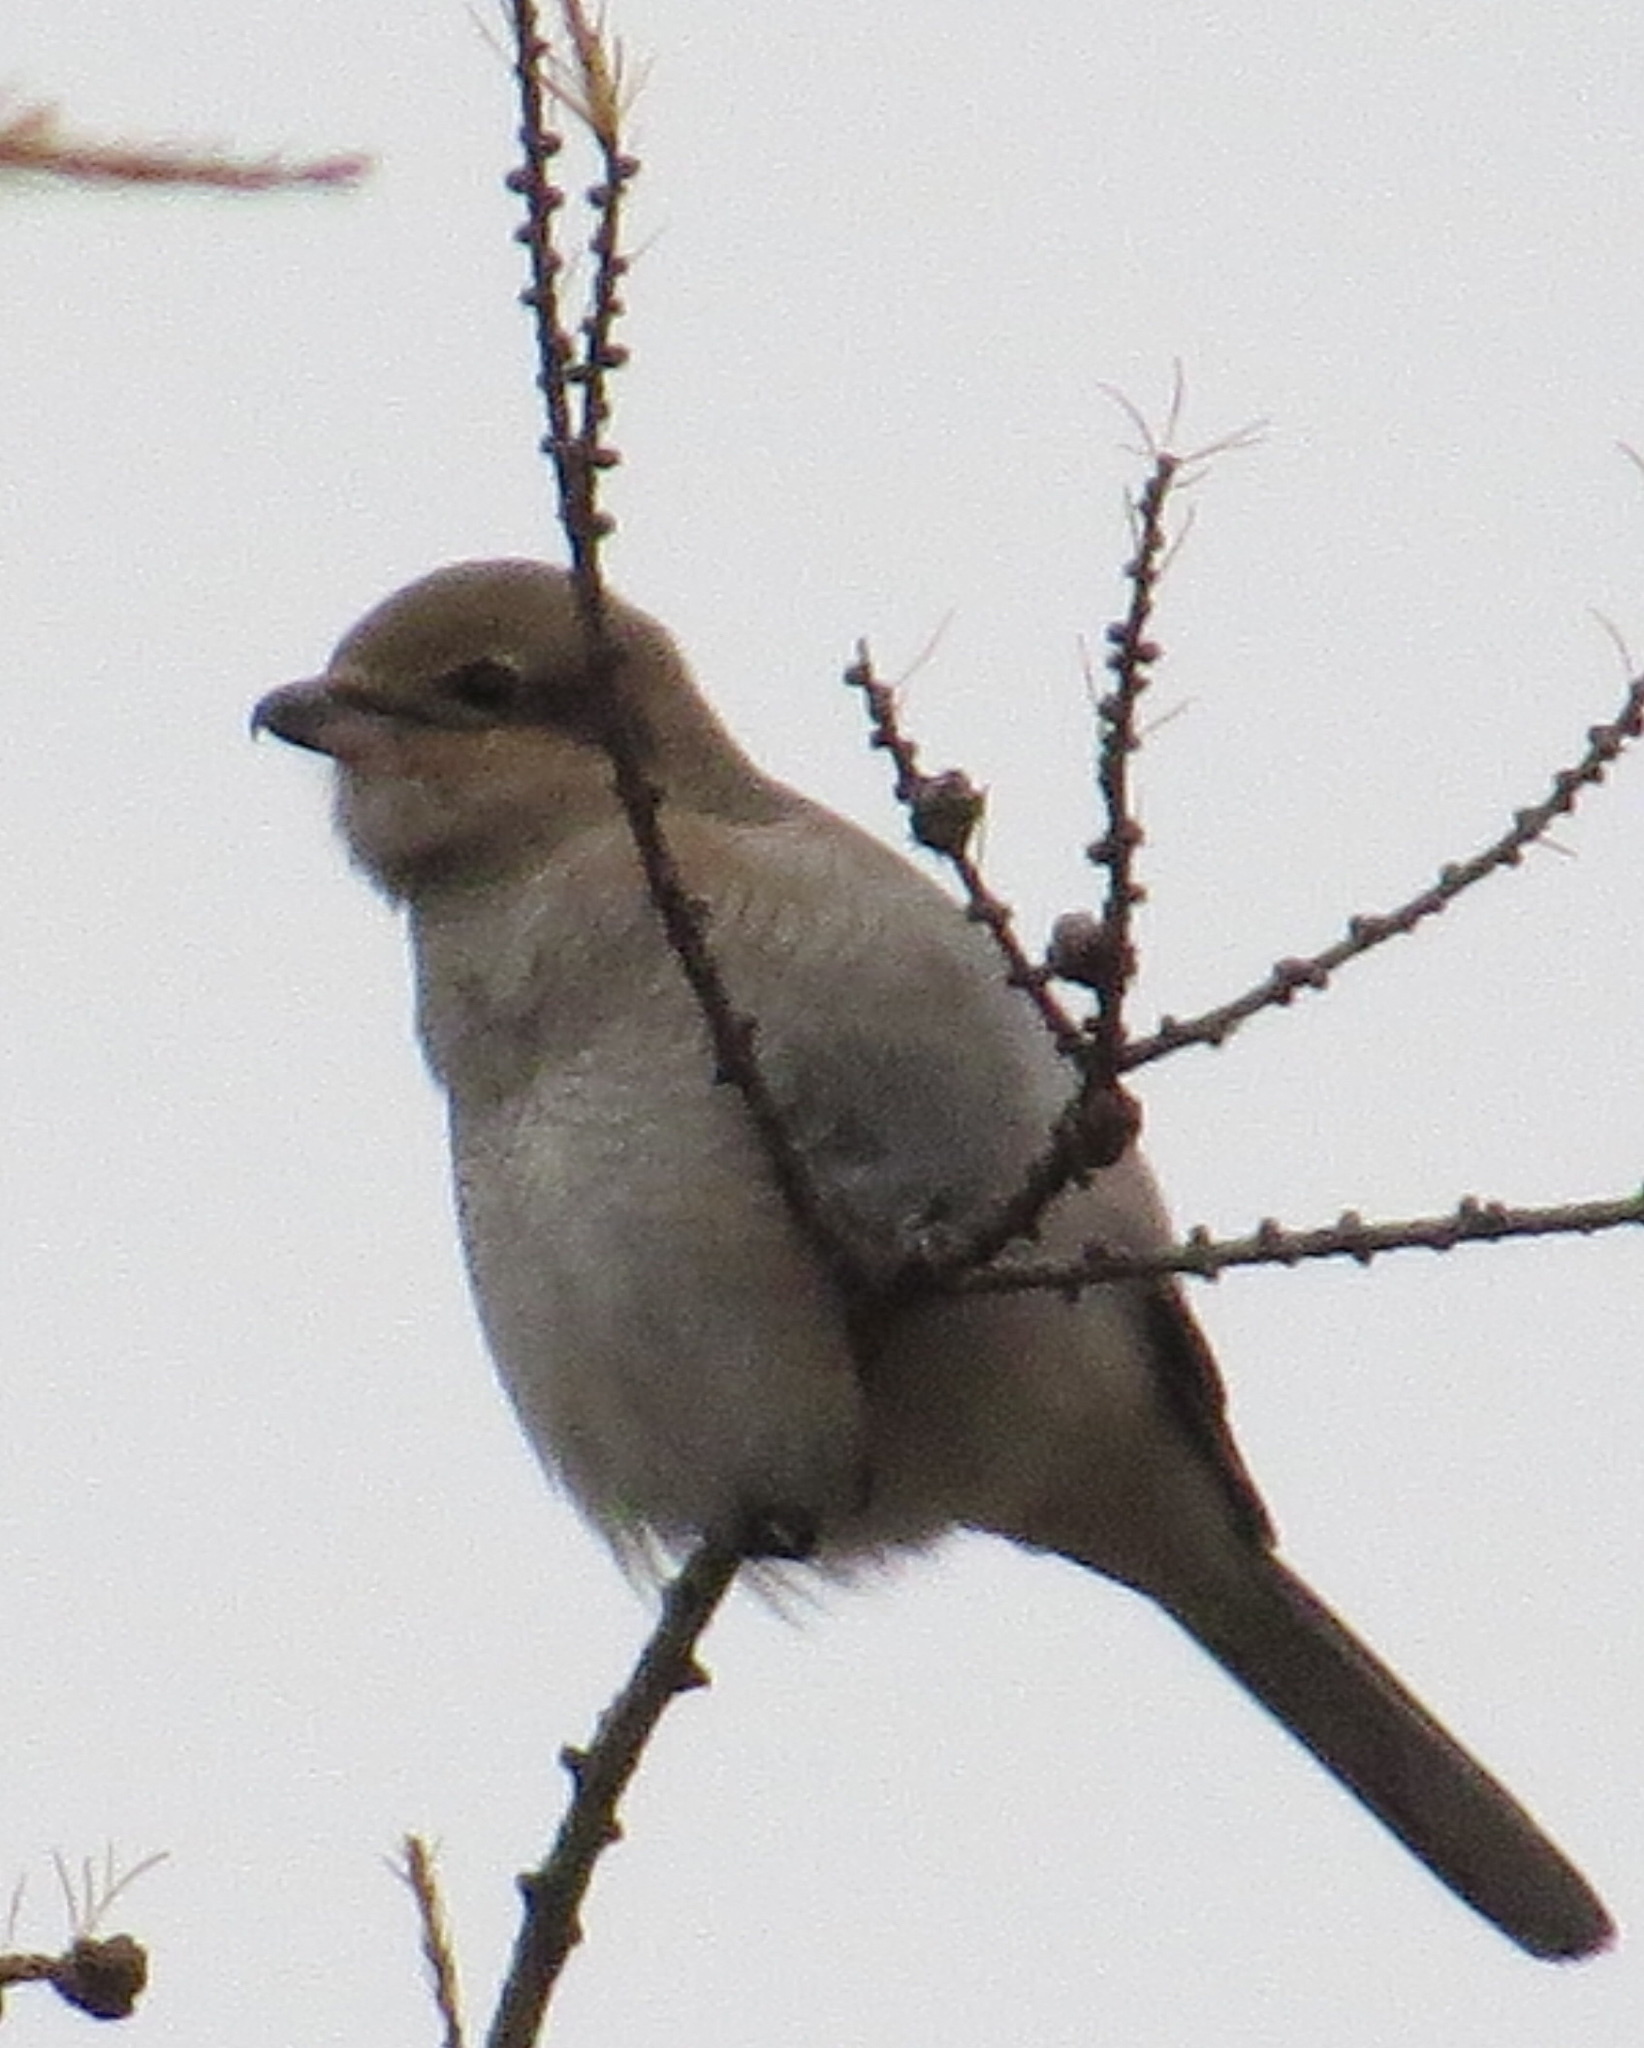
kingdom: Animalia
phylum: Chordata
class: Aves
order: Passeriformes
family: Laniidae
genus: Lanius
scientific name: Lanius borealis
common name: Northern shrike
